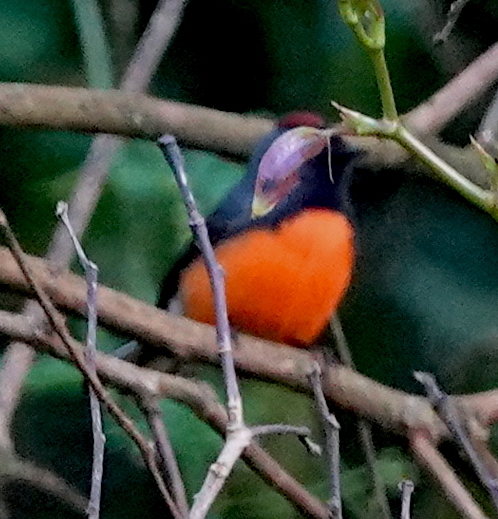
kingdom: Animalia
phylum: Chordata
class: Aves
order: Passeriformes
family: Parulidae
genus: Myioborus
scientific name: Myioborus miniatus
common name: Slate-throated redstart
